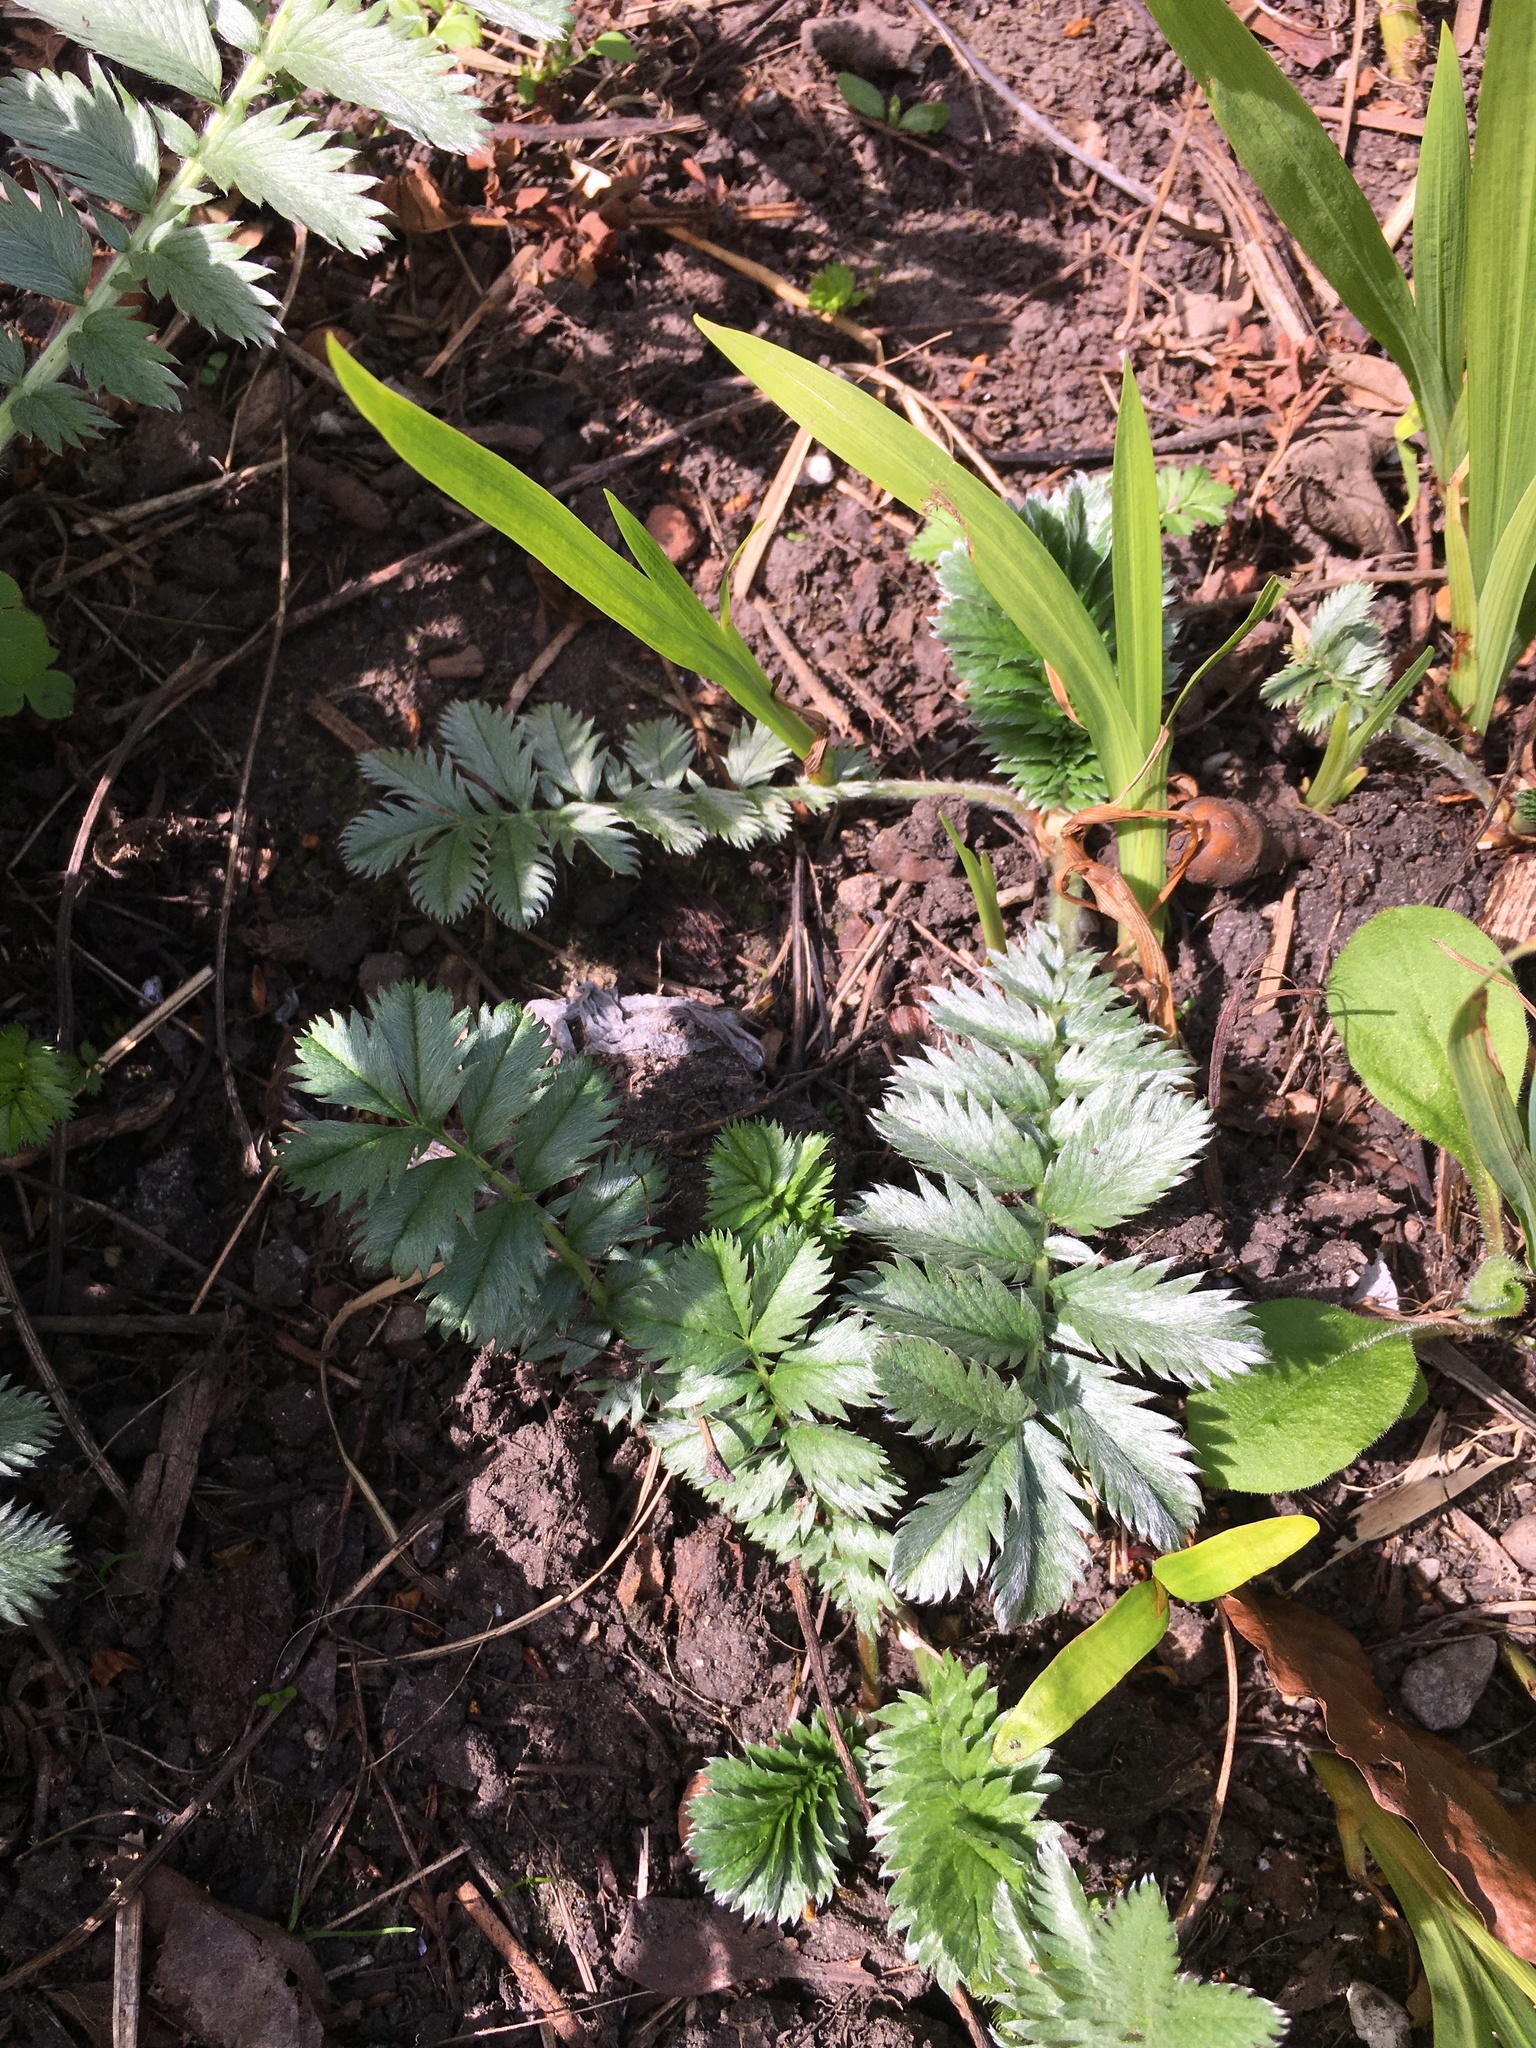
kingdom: Plantae
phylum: Tracheophyta
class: Magnoliopsida
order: Rosales
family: Rosaceae
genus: Argentina
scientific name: Argentina anserina
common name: Common silverweed
